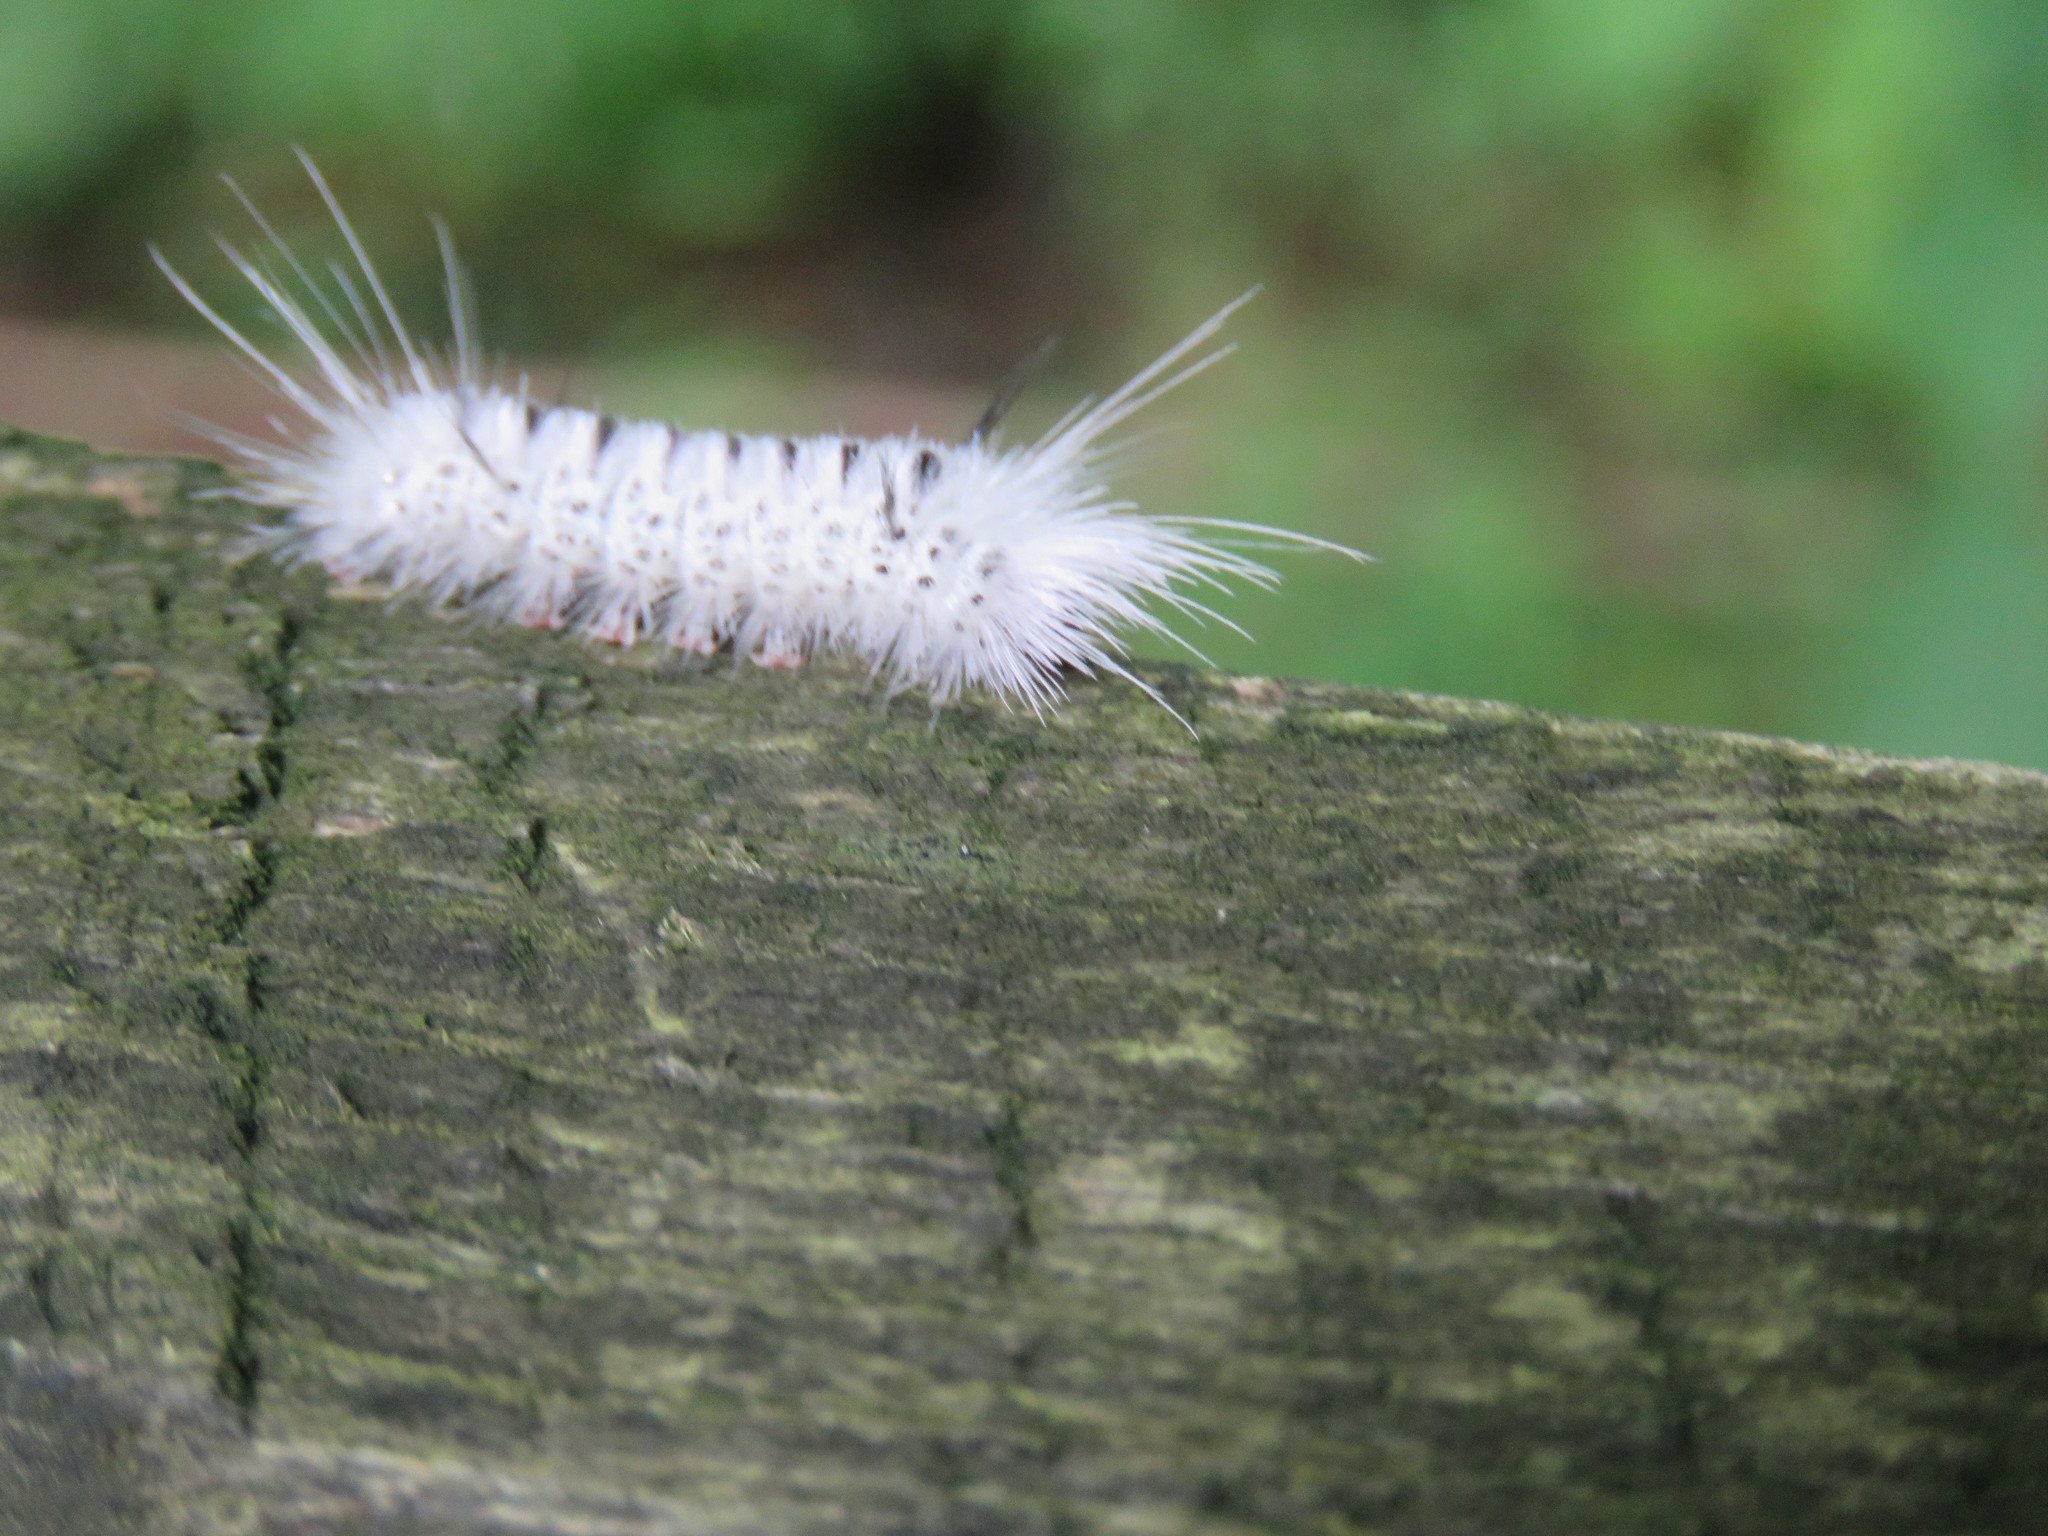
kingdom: Animalia
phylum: Arthropoda
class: Insecta
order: Lepidoptera
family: Erebidae
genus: Lophocampa
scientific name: Lophocampa caryae
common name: Hickory tussock moth
